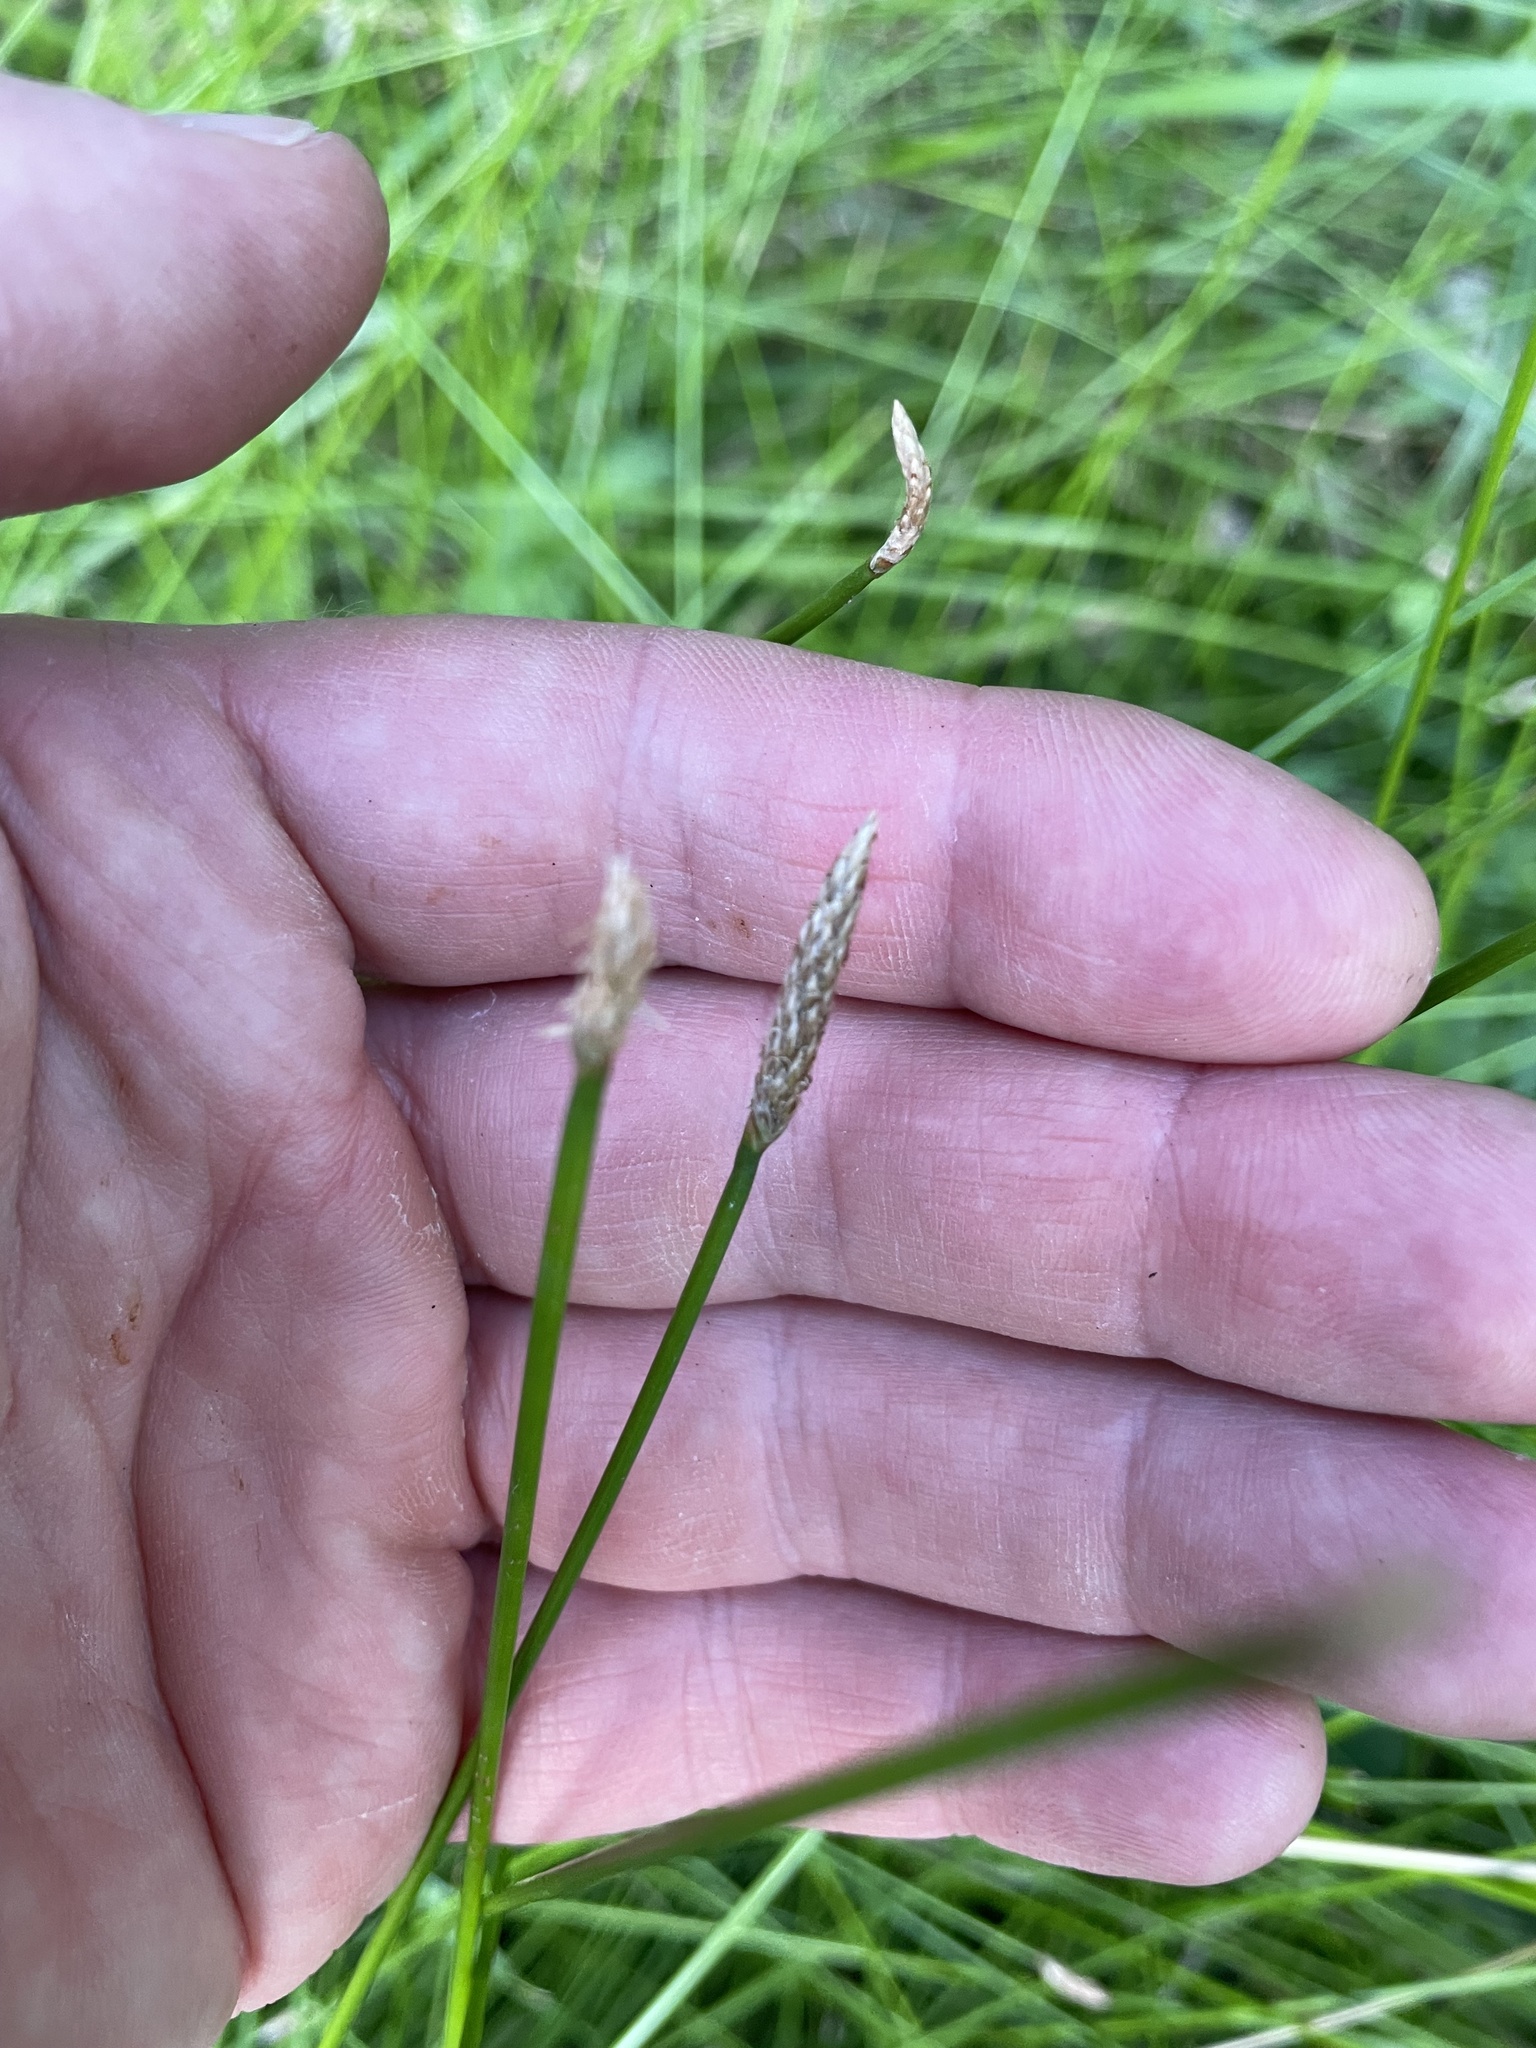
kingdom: Plantae
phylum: Tracheophyta
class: Liliopsida
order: Poales
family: Cyperaceae
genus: Eleocharis
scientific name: Eleocharis acuta
